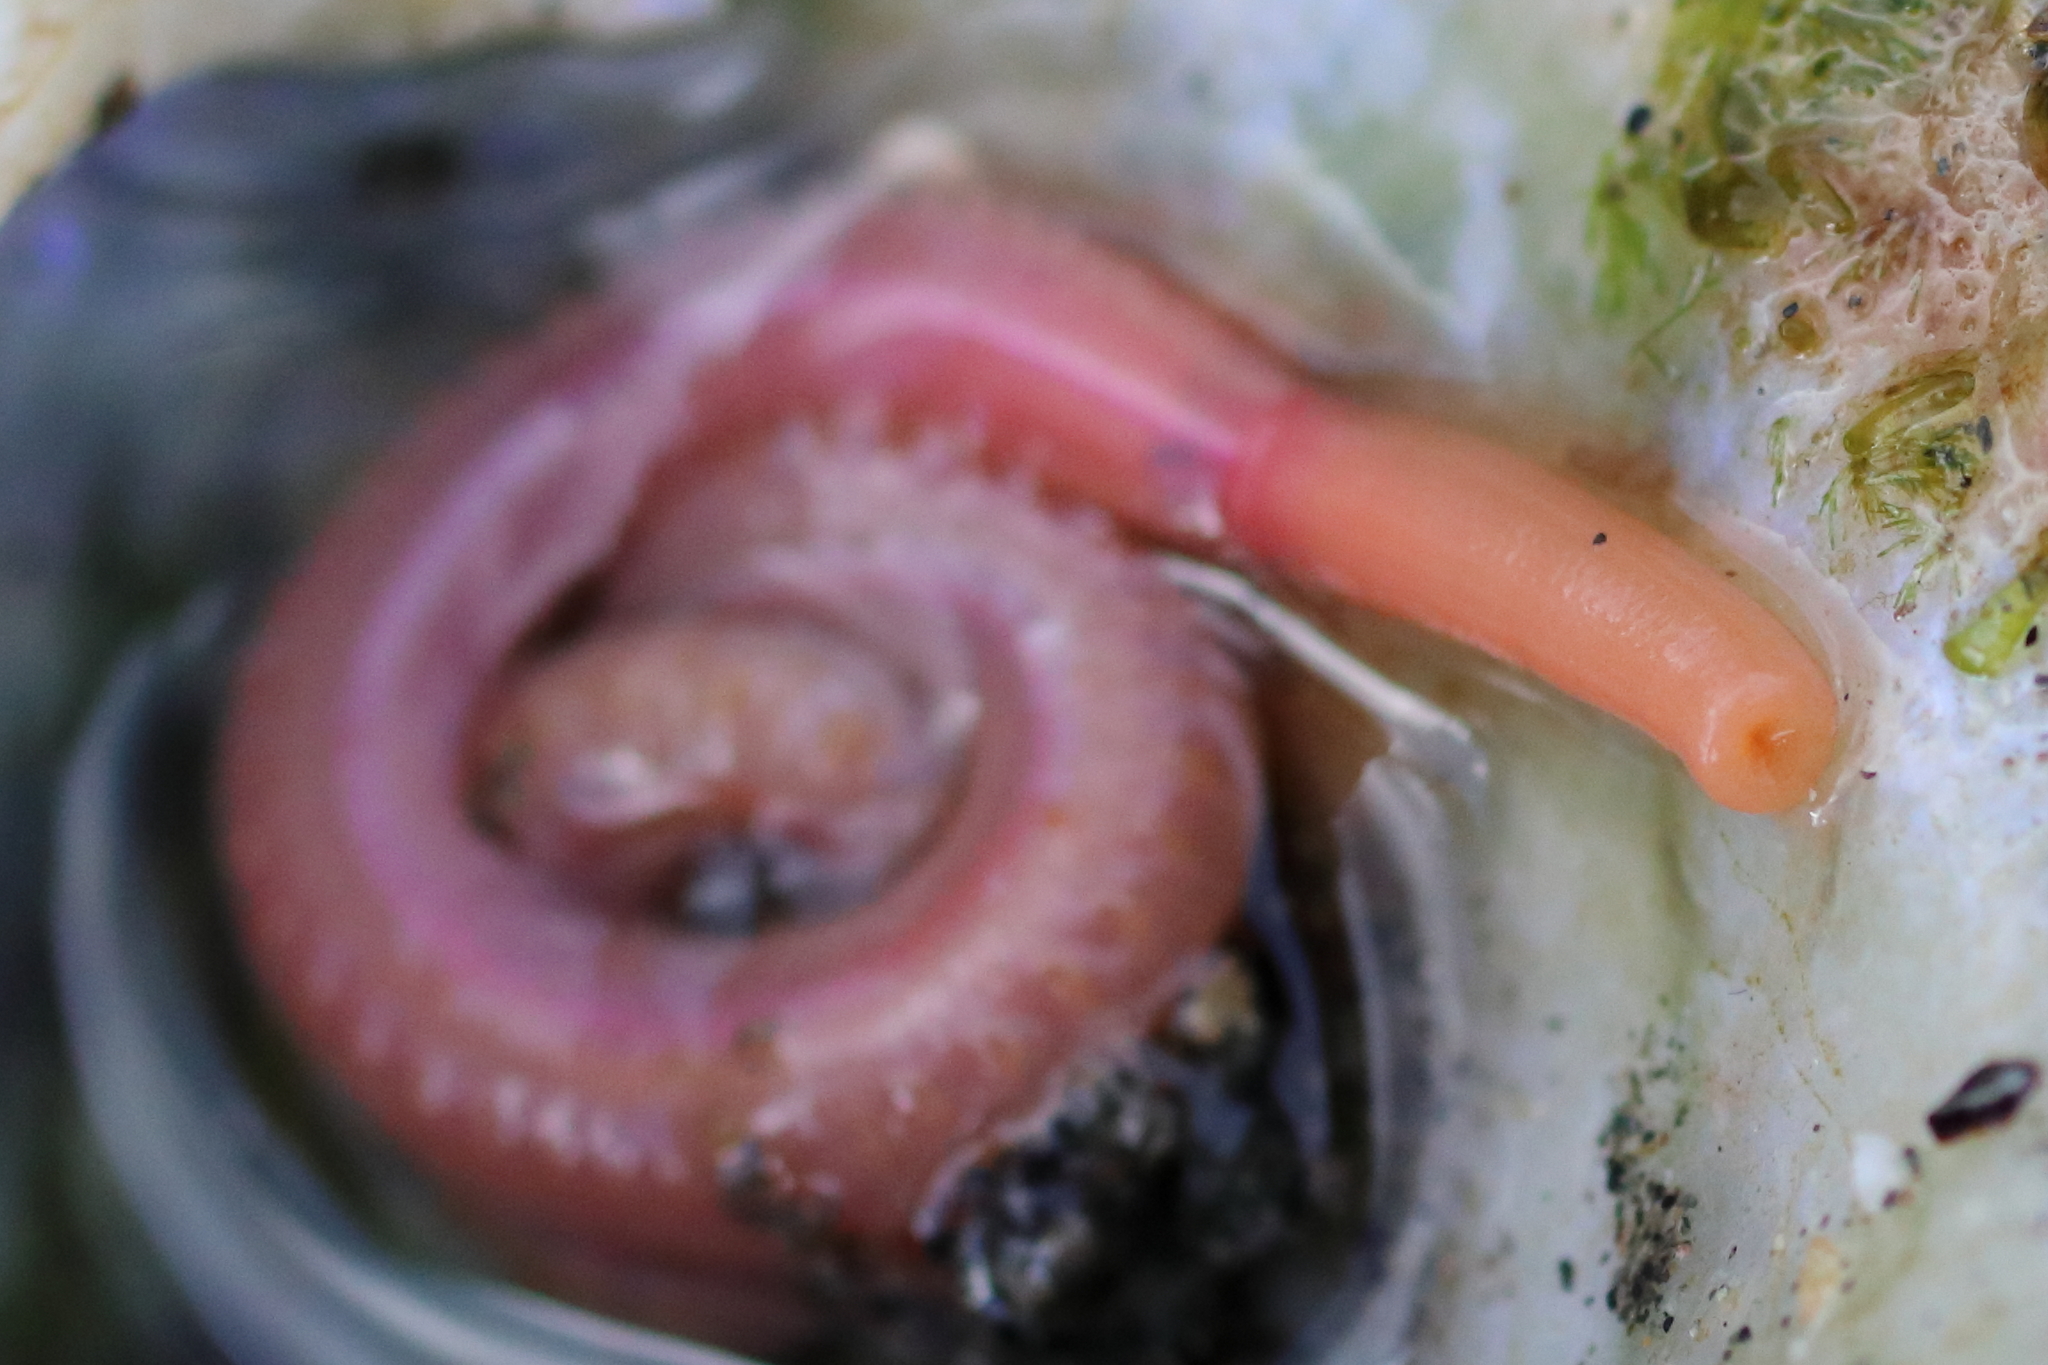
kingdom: Animalia
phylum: Annelida
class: Polychaeta
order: Phyllodocida
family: Glyceridae
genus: Hemipodia
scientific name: Hemipodia simplex
